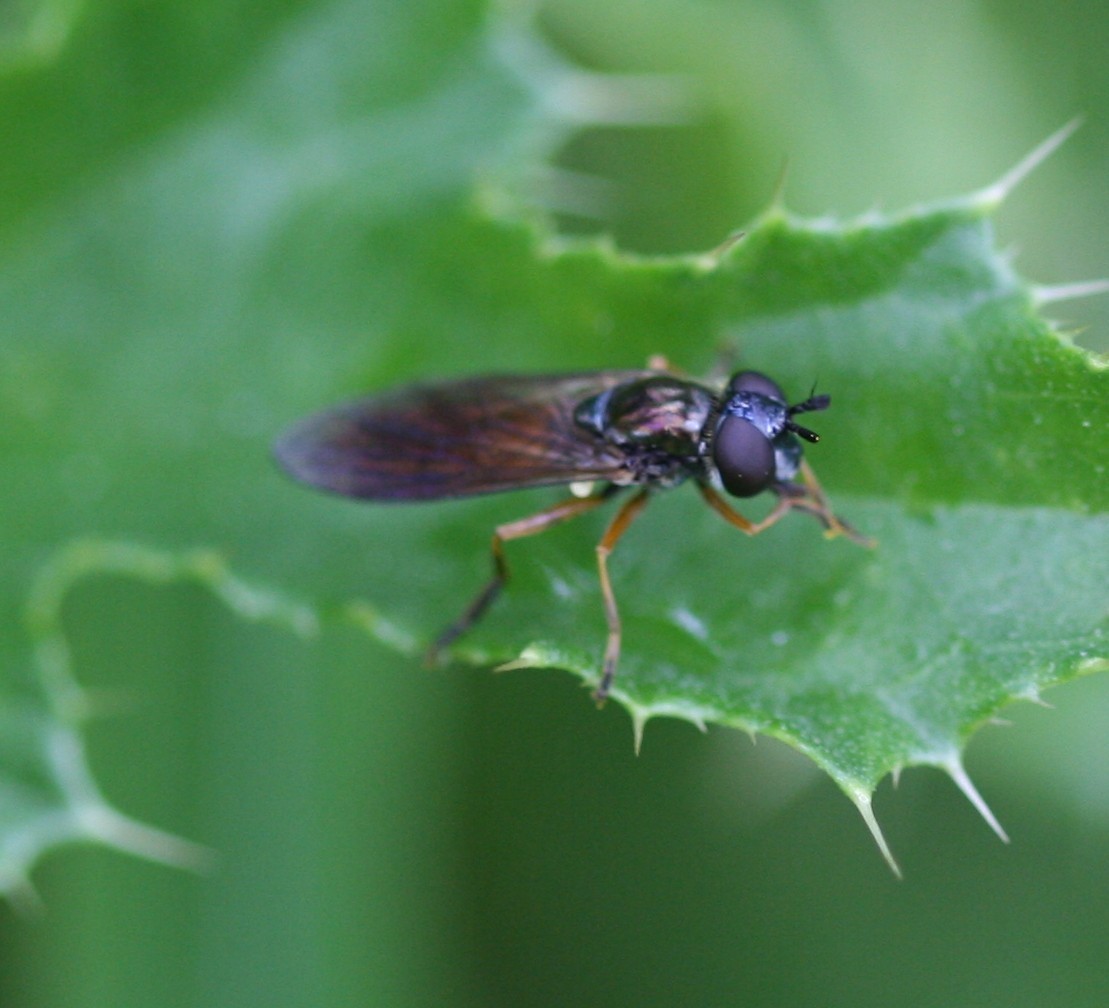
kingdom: Animalia
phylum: Arthropoda
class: Insecta
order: Diptera
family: Syrphidae
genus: Pyrophaena
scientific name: Pyrophaena granditarsa
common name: Hornhand sedgesitter
